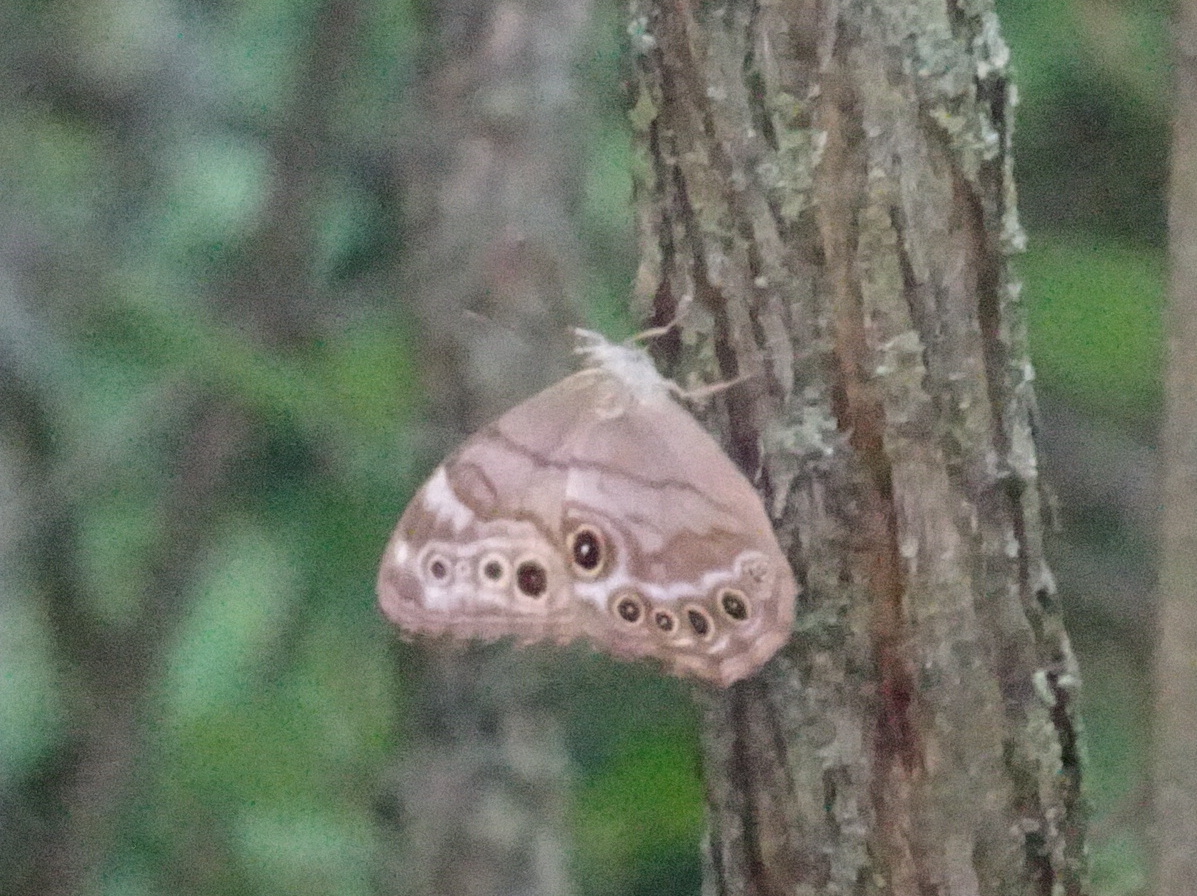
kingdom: Animalia
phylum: Arthropoda
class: Insecta
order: Lepidoptera
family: Nymphalidae
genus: Lethe
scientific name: Lethe anthedon
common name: Northern pearly-eye
